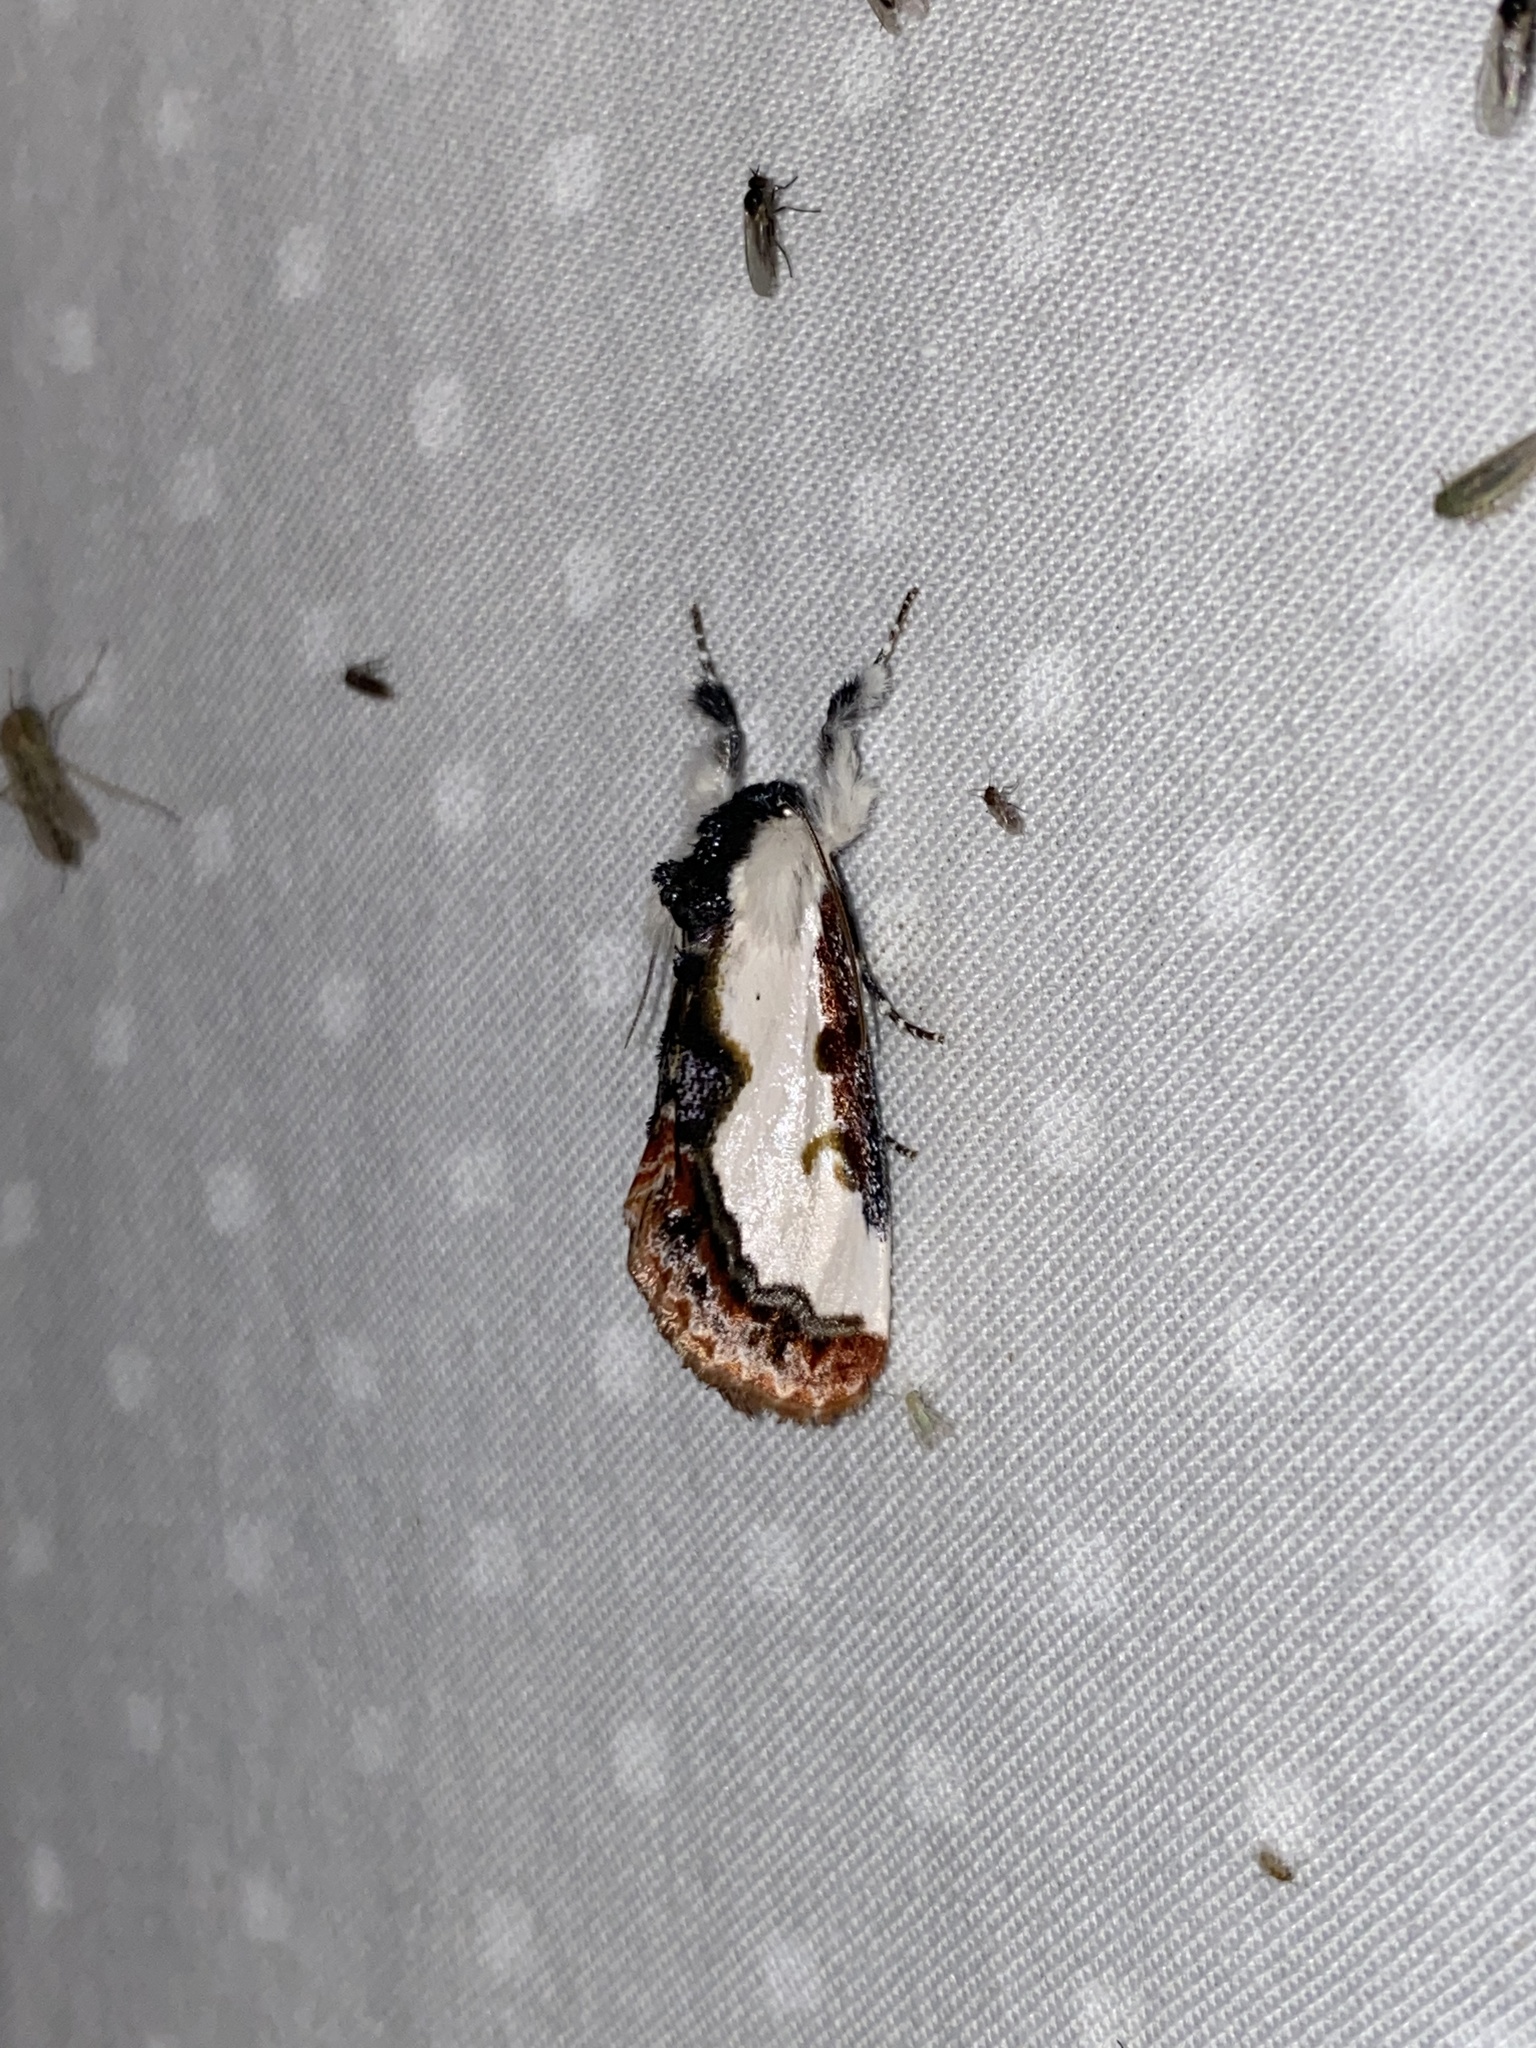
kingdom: Animalia
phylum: Arthropoda
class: Insecta
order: Lepidoptera
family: Noctuidae
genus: Eudryas
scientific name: Eudryas unio
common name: Pearly wood-nymph
